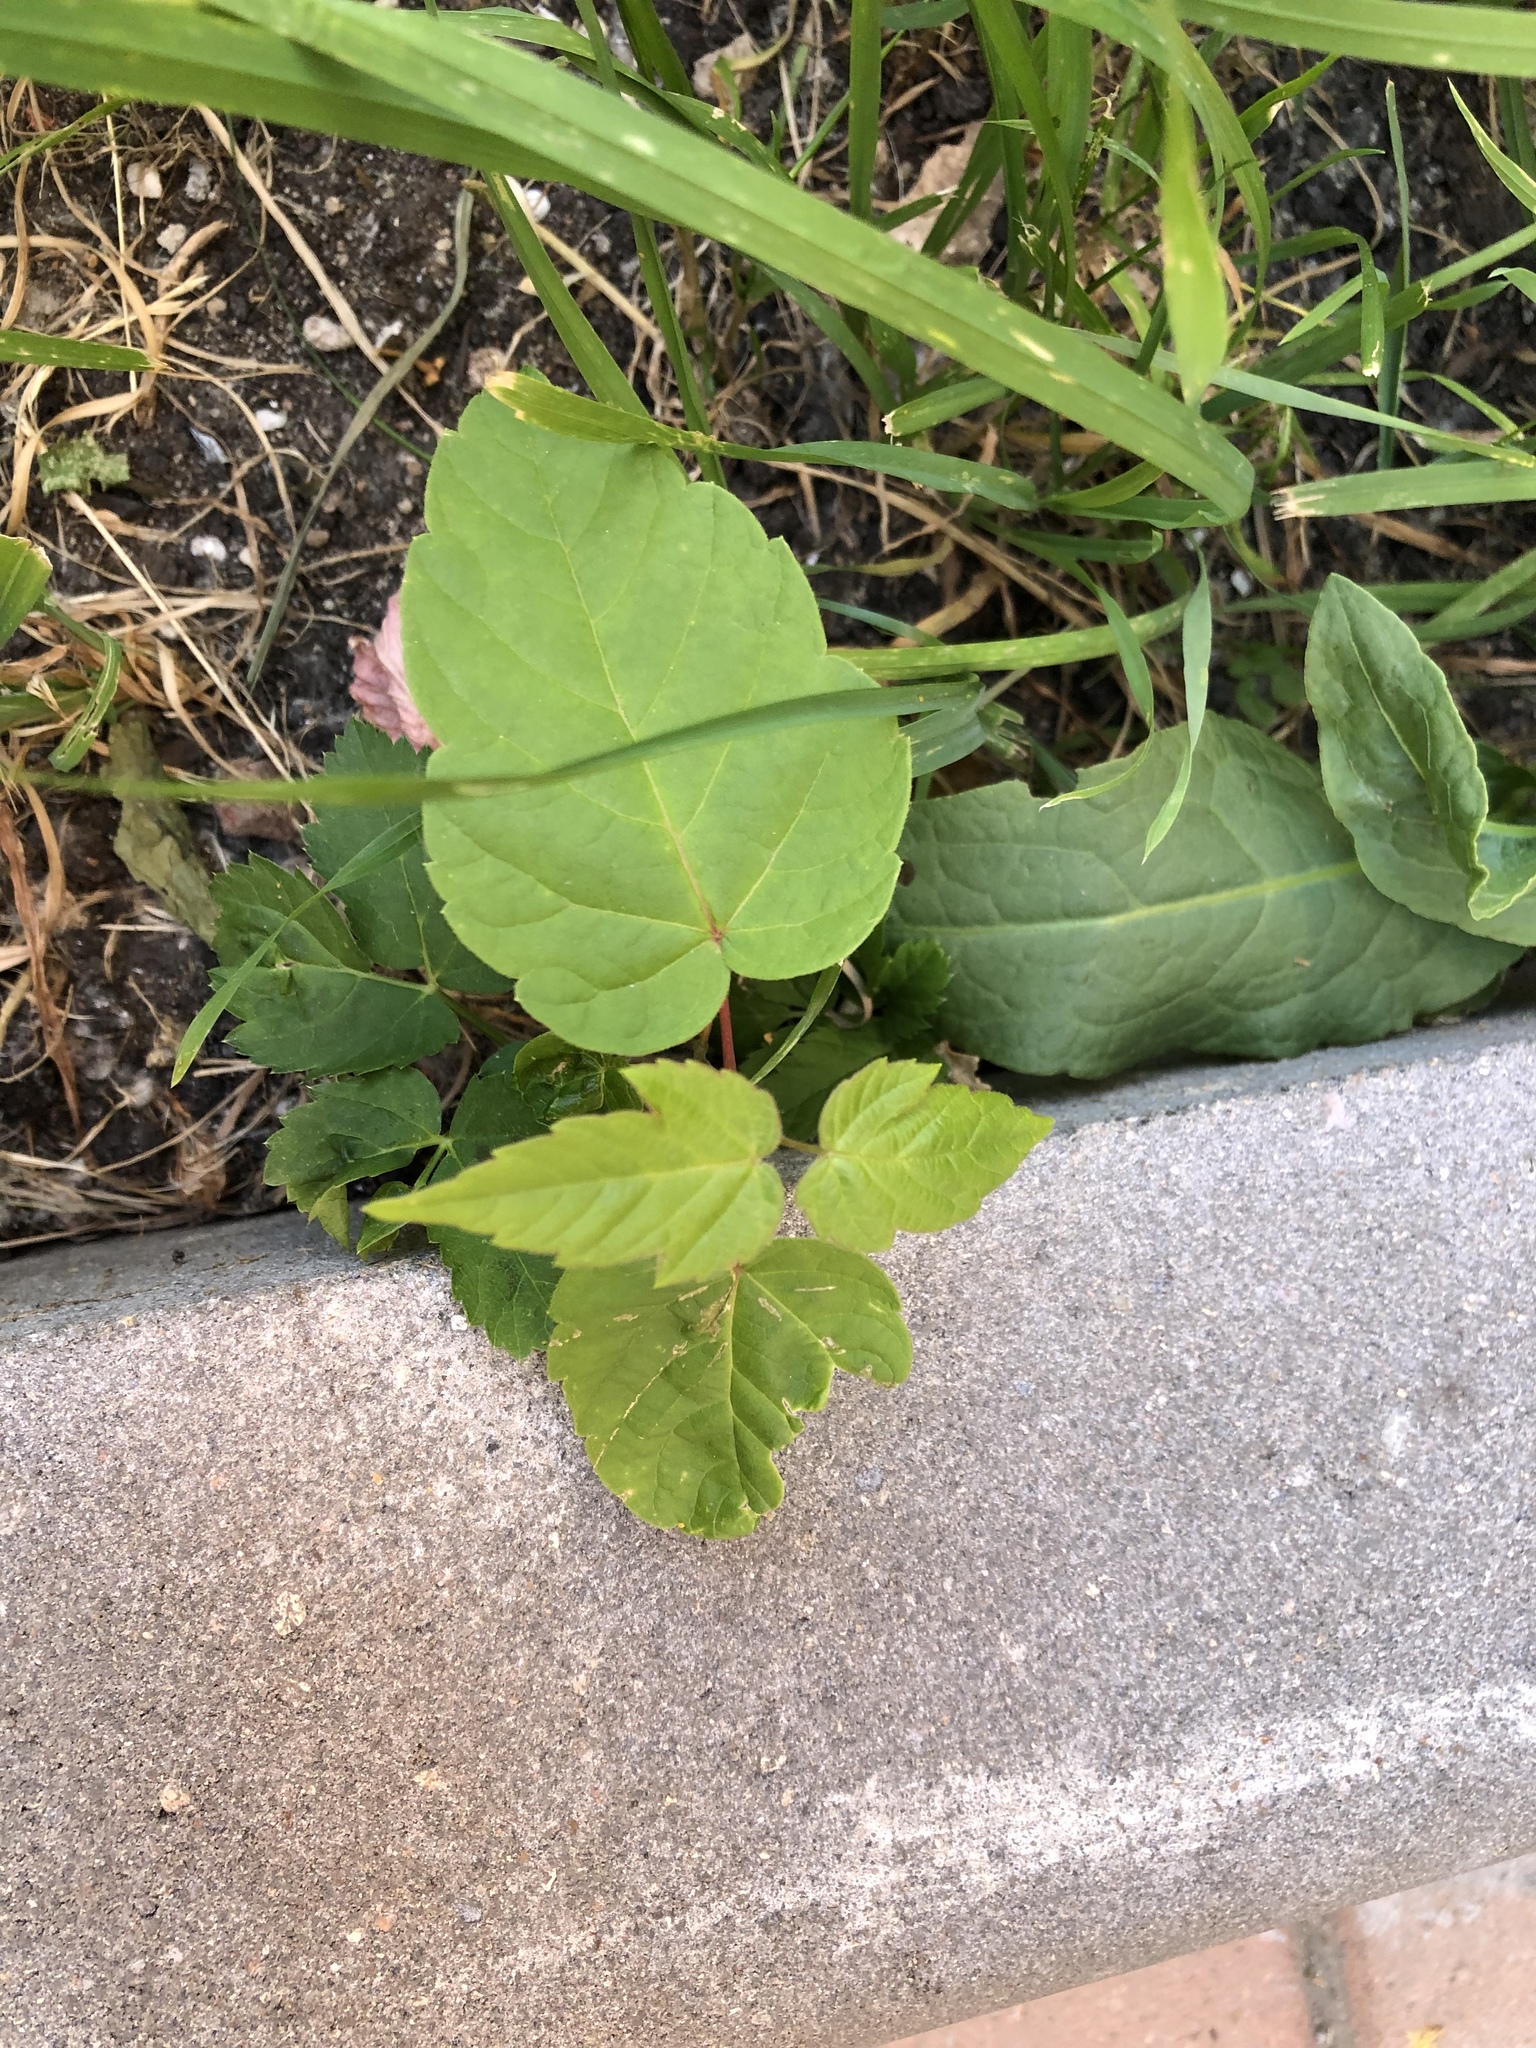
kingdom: Plantae
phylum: Tracheophyta
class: Magnoliopsida
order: Sapindales
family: Sapindaceae
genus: Acer
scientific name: Acer negundo
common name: Ashleaf maple
